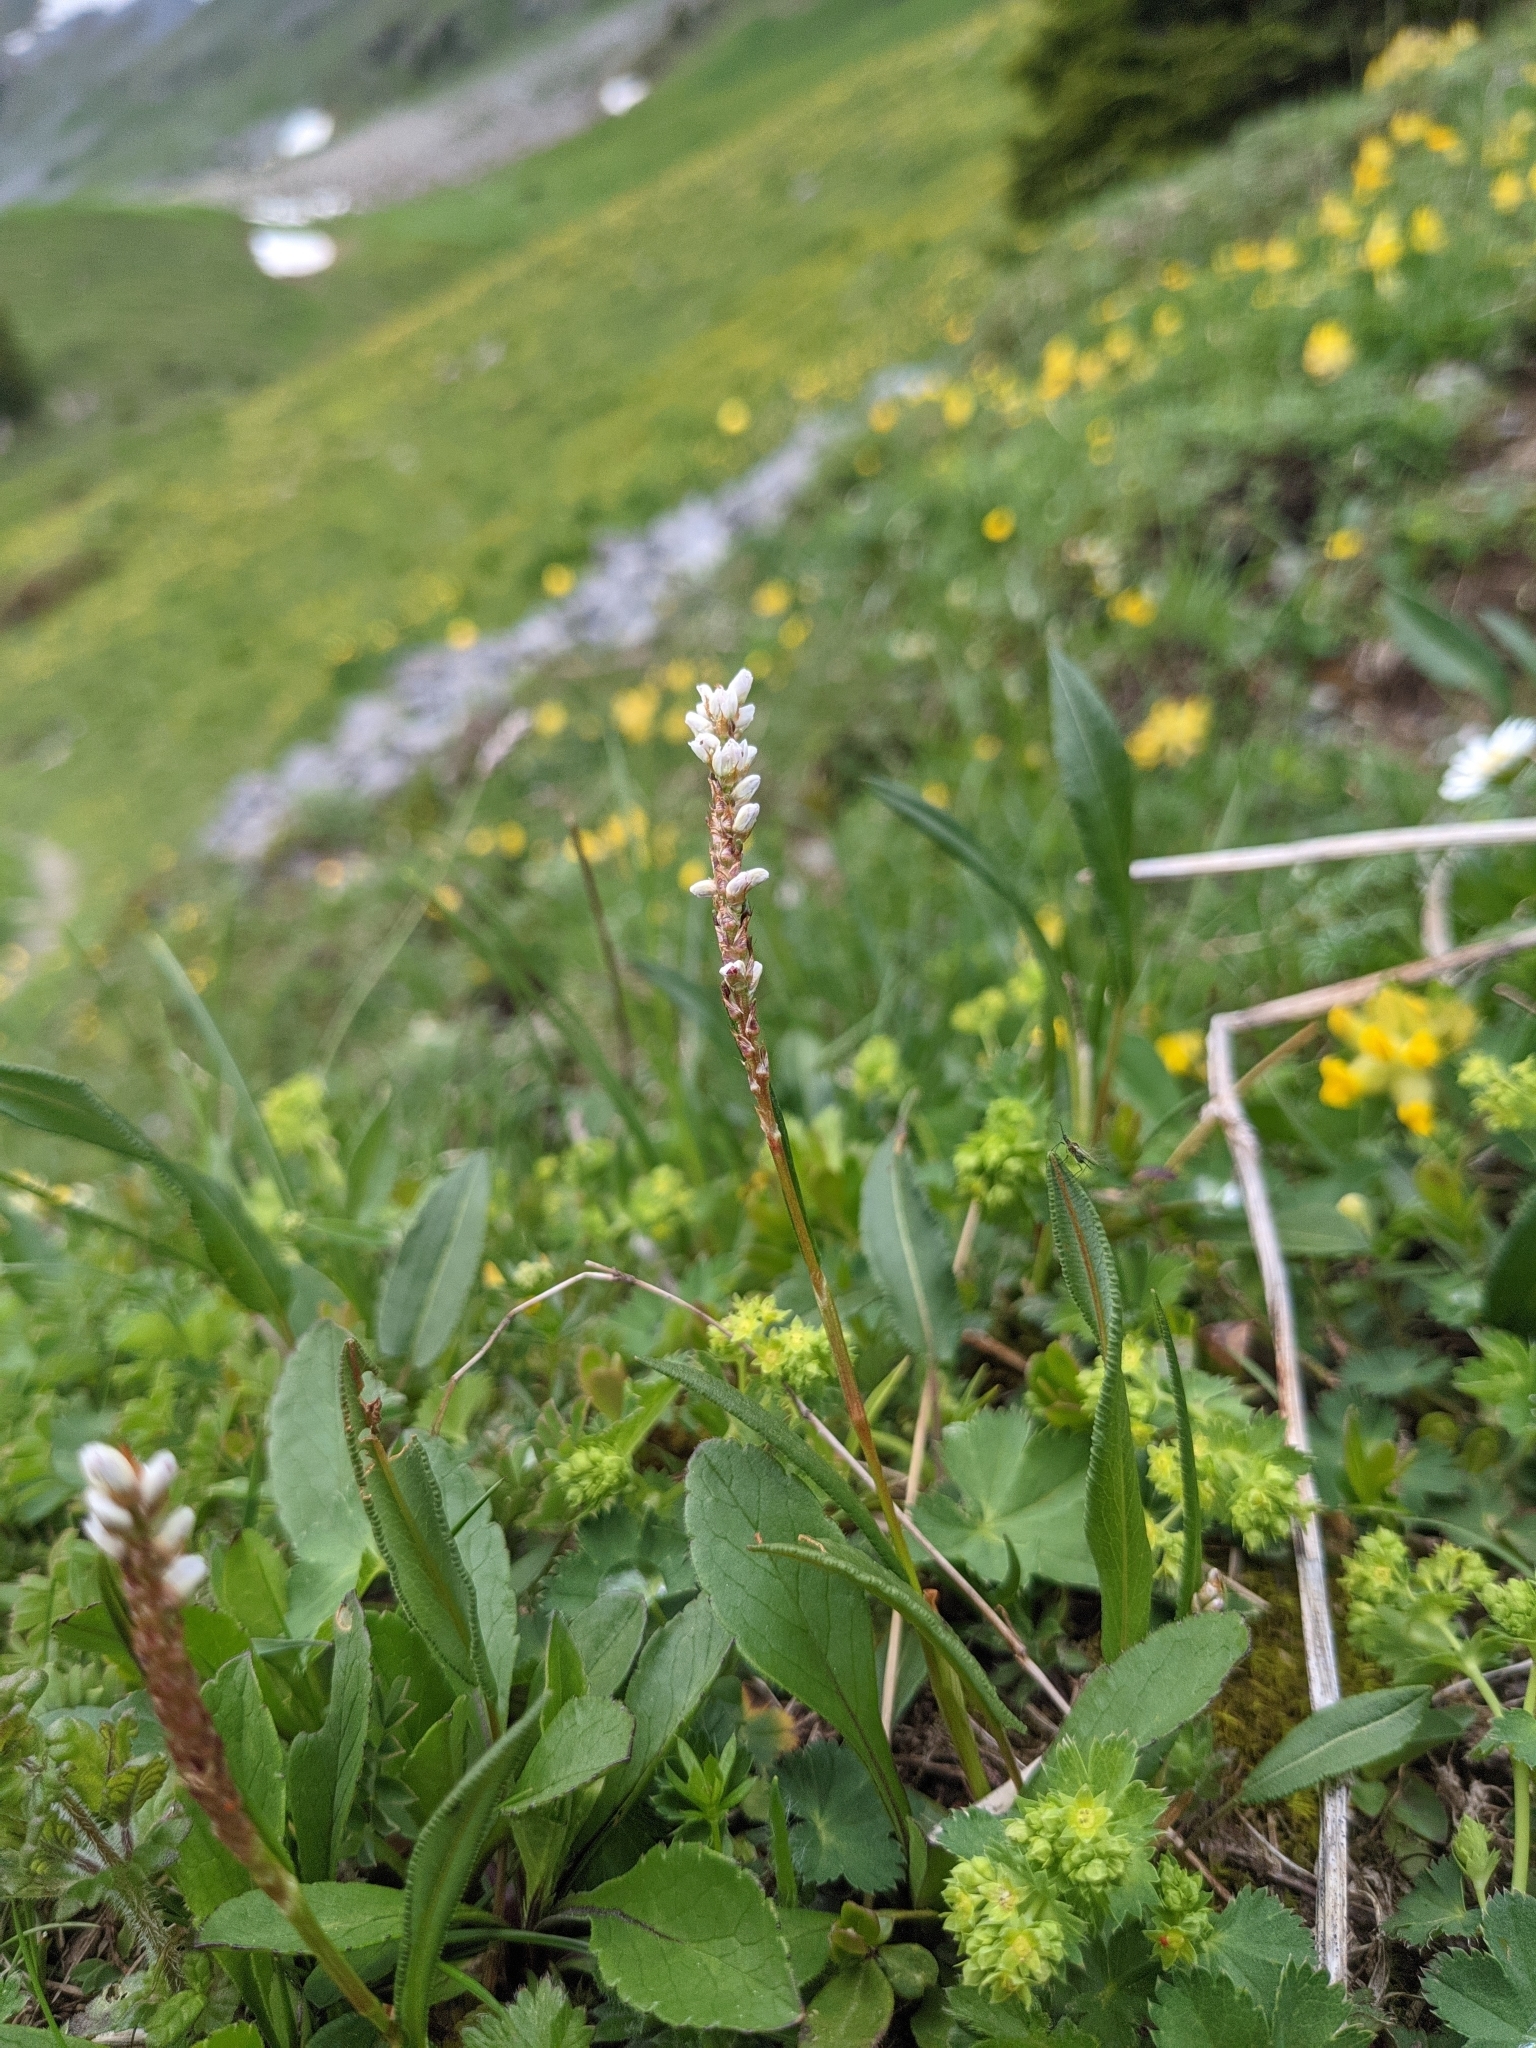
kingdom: Plantae
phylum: Tracheophyta
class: Magnoliopsida
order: Caryophyllales
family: Polygonaceae
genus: Bistorta
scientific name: Bistorta vivipara
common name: Alpine bistort
